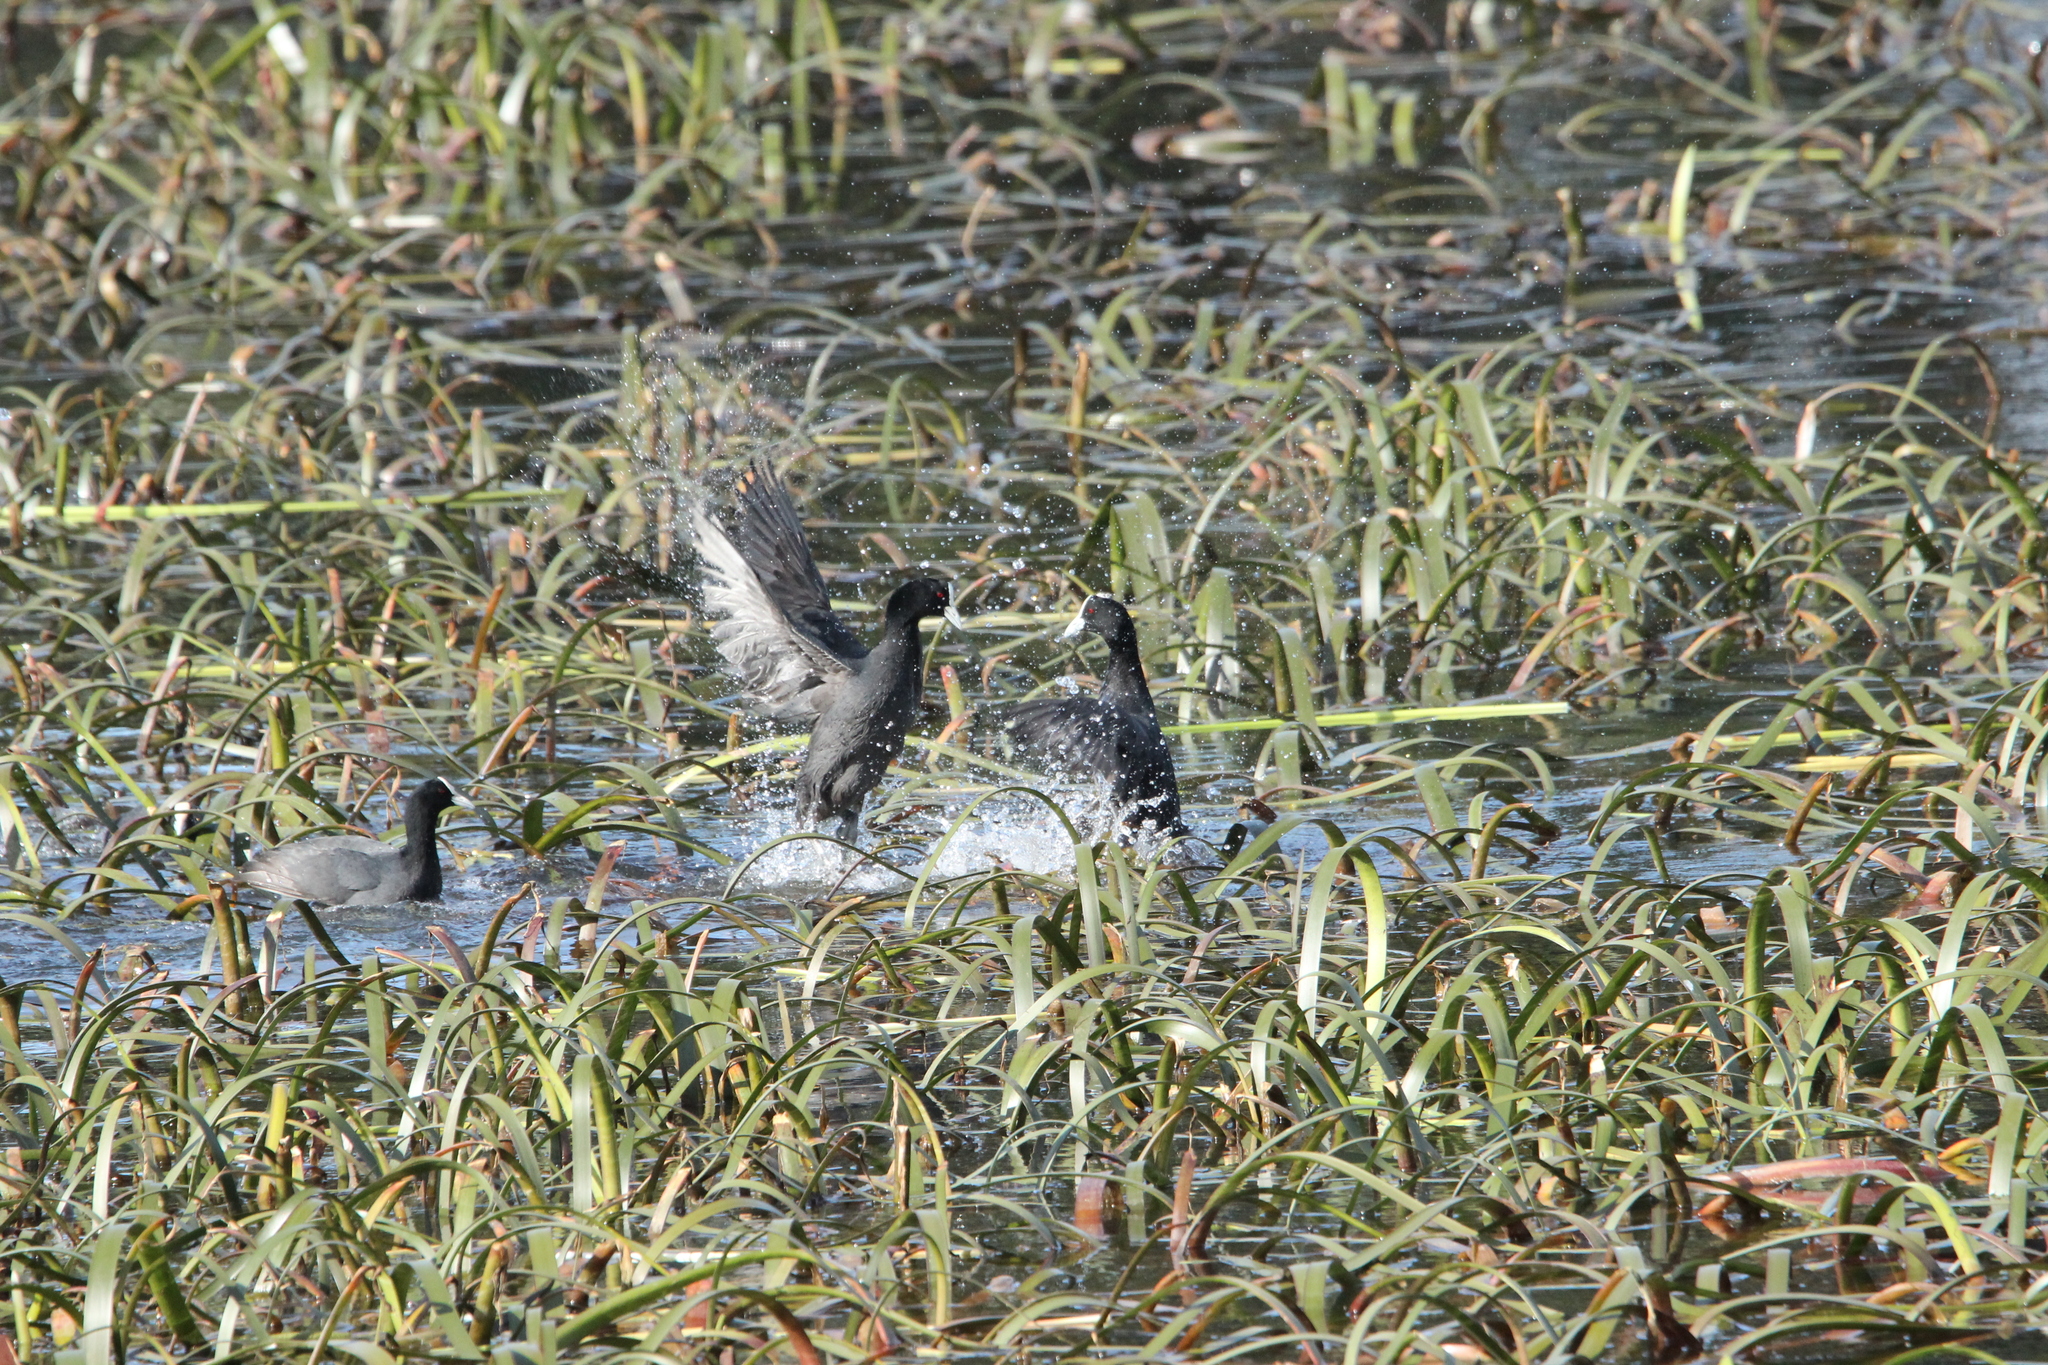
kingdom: Animalia
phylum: Chordata
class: Aves
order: Gruiformes
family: Rallidae
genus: Fulica
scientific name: Fulica atra
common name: Eurasian coot
